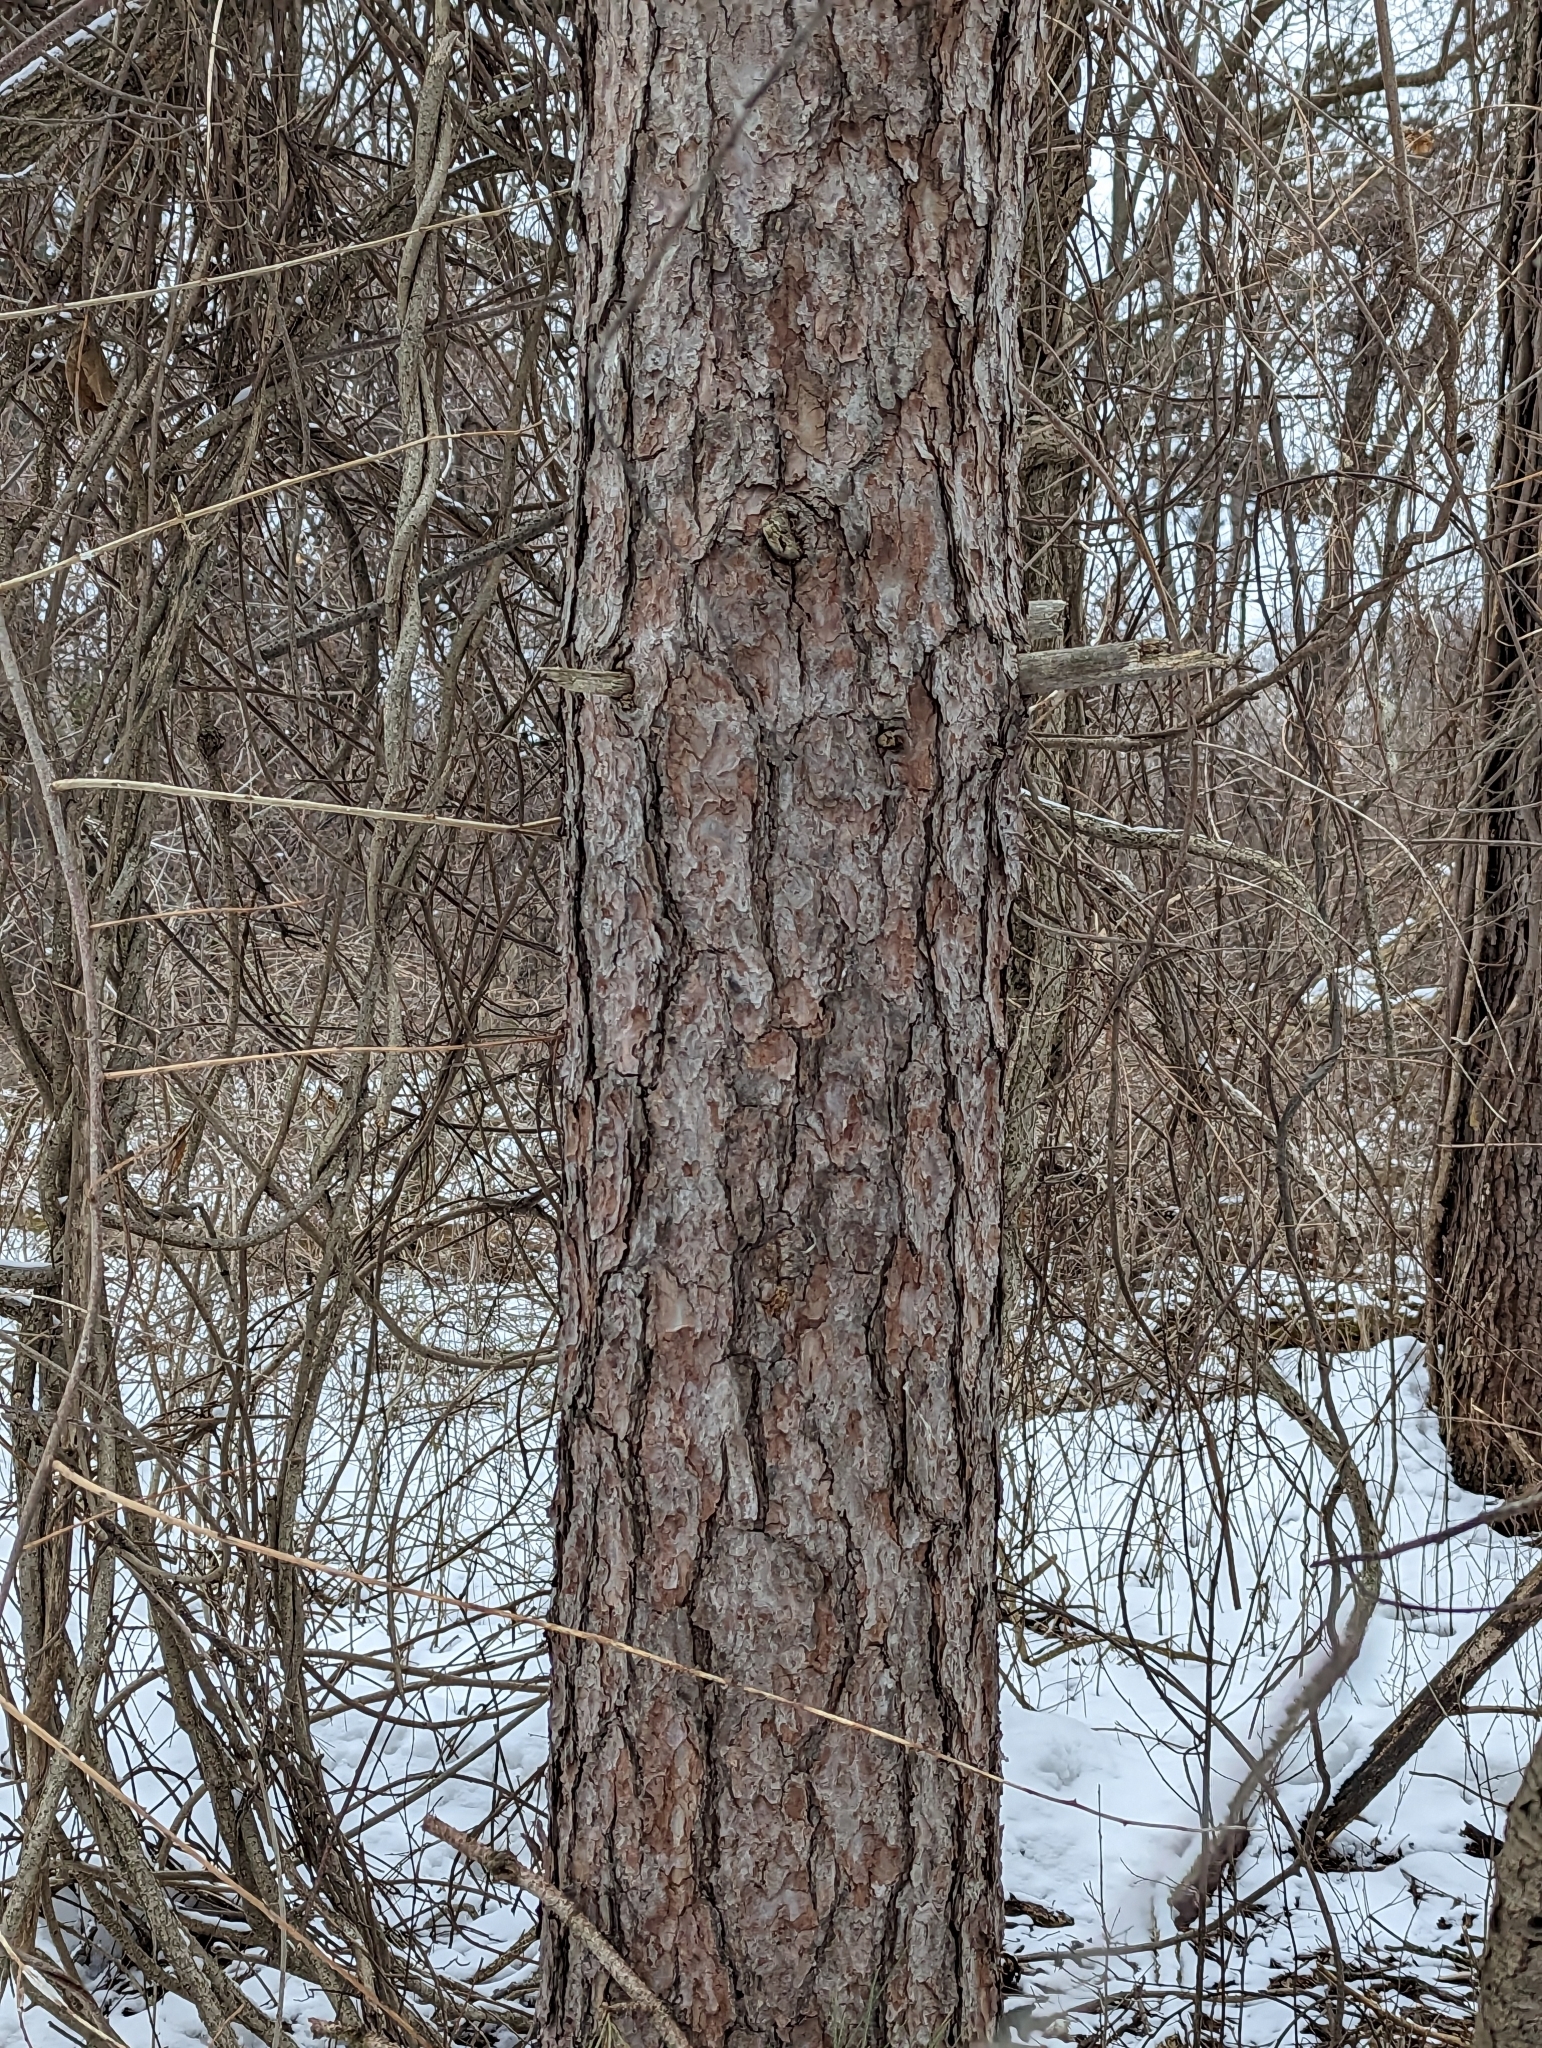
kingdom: Plantae
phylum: Tracheophyta
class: Pinopsida
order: Pinales
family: Pinaceae
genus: Pinus
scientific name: Pinus resinosa
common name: Norway pine
